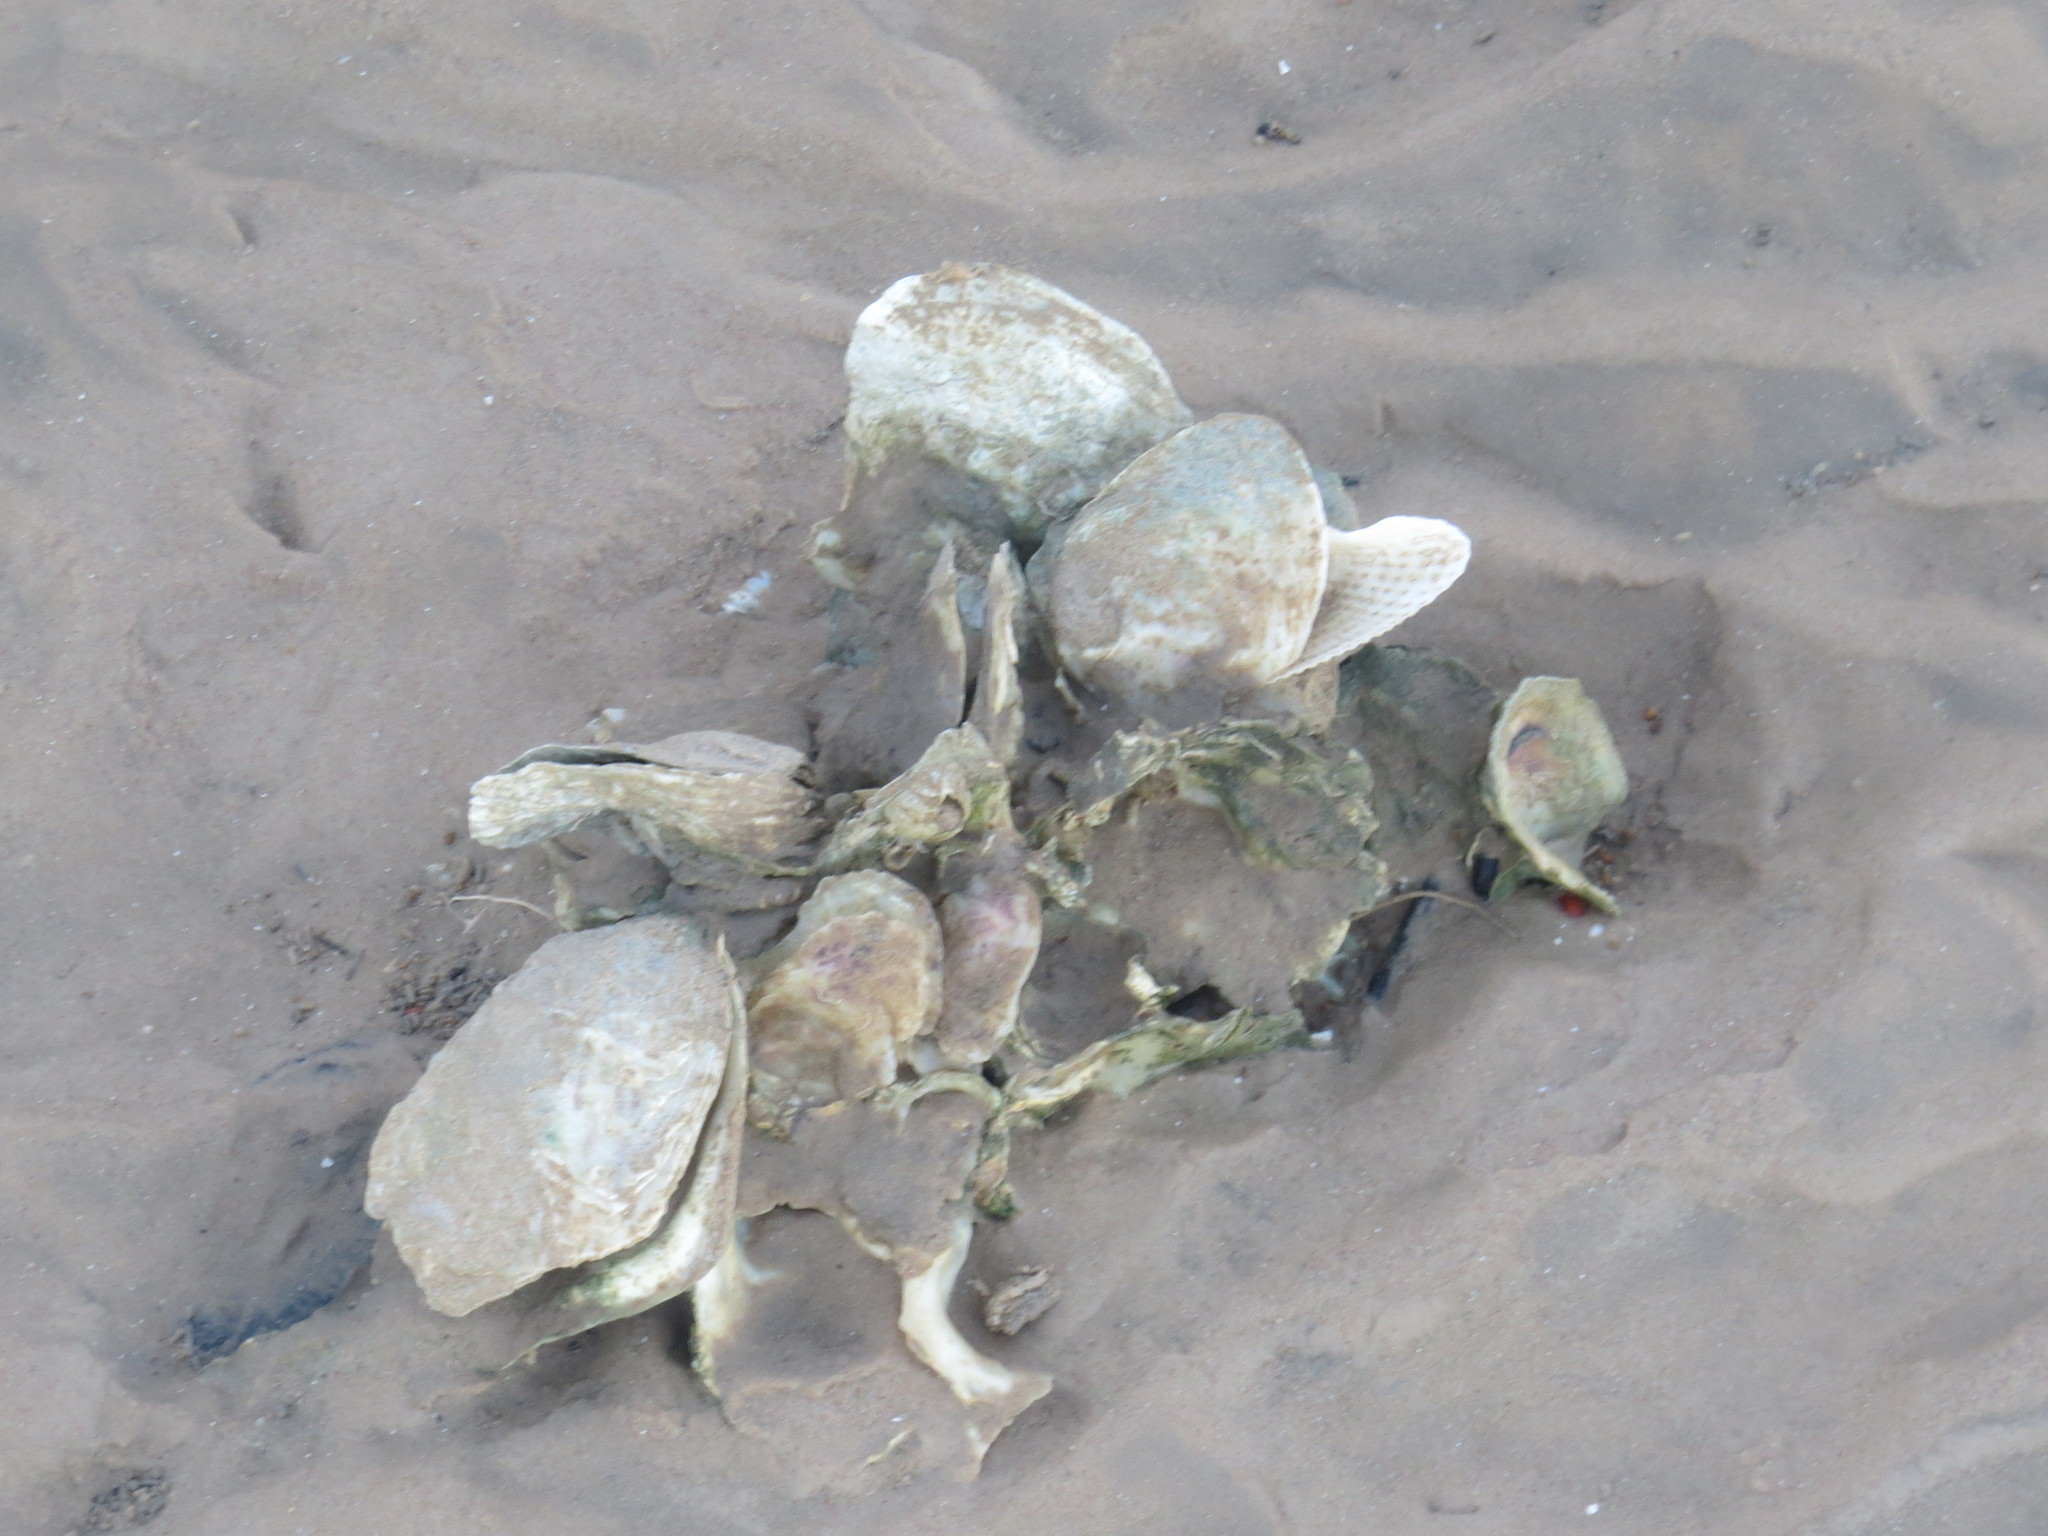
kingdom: Animalia
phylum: Mollusca
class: Bivalvia
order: Ostreida
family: Ostreidae
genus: Crassostrea
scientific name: Crassostrea virginica
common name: American oyster
